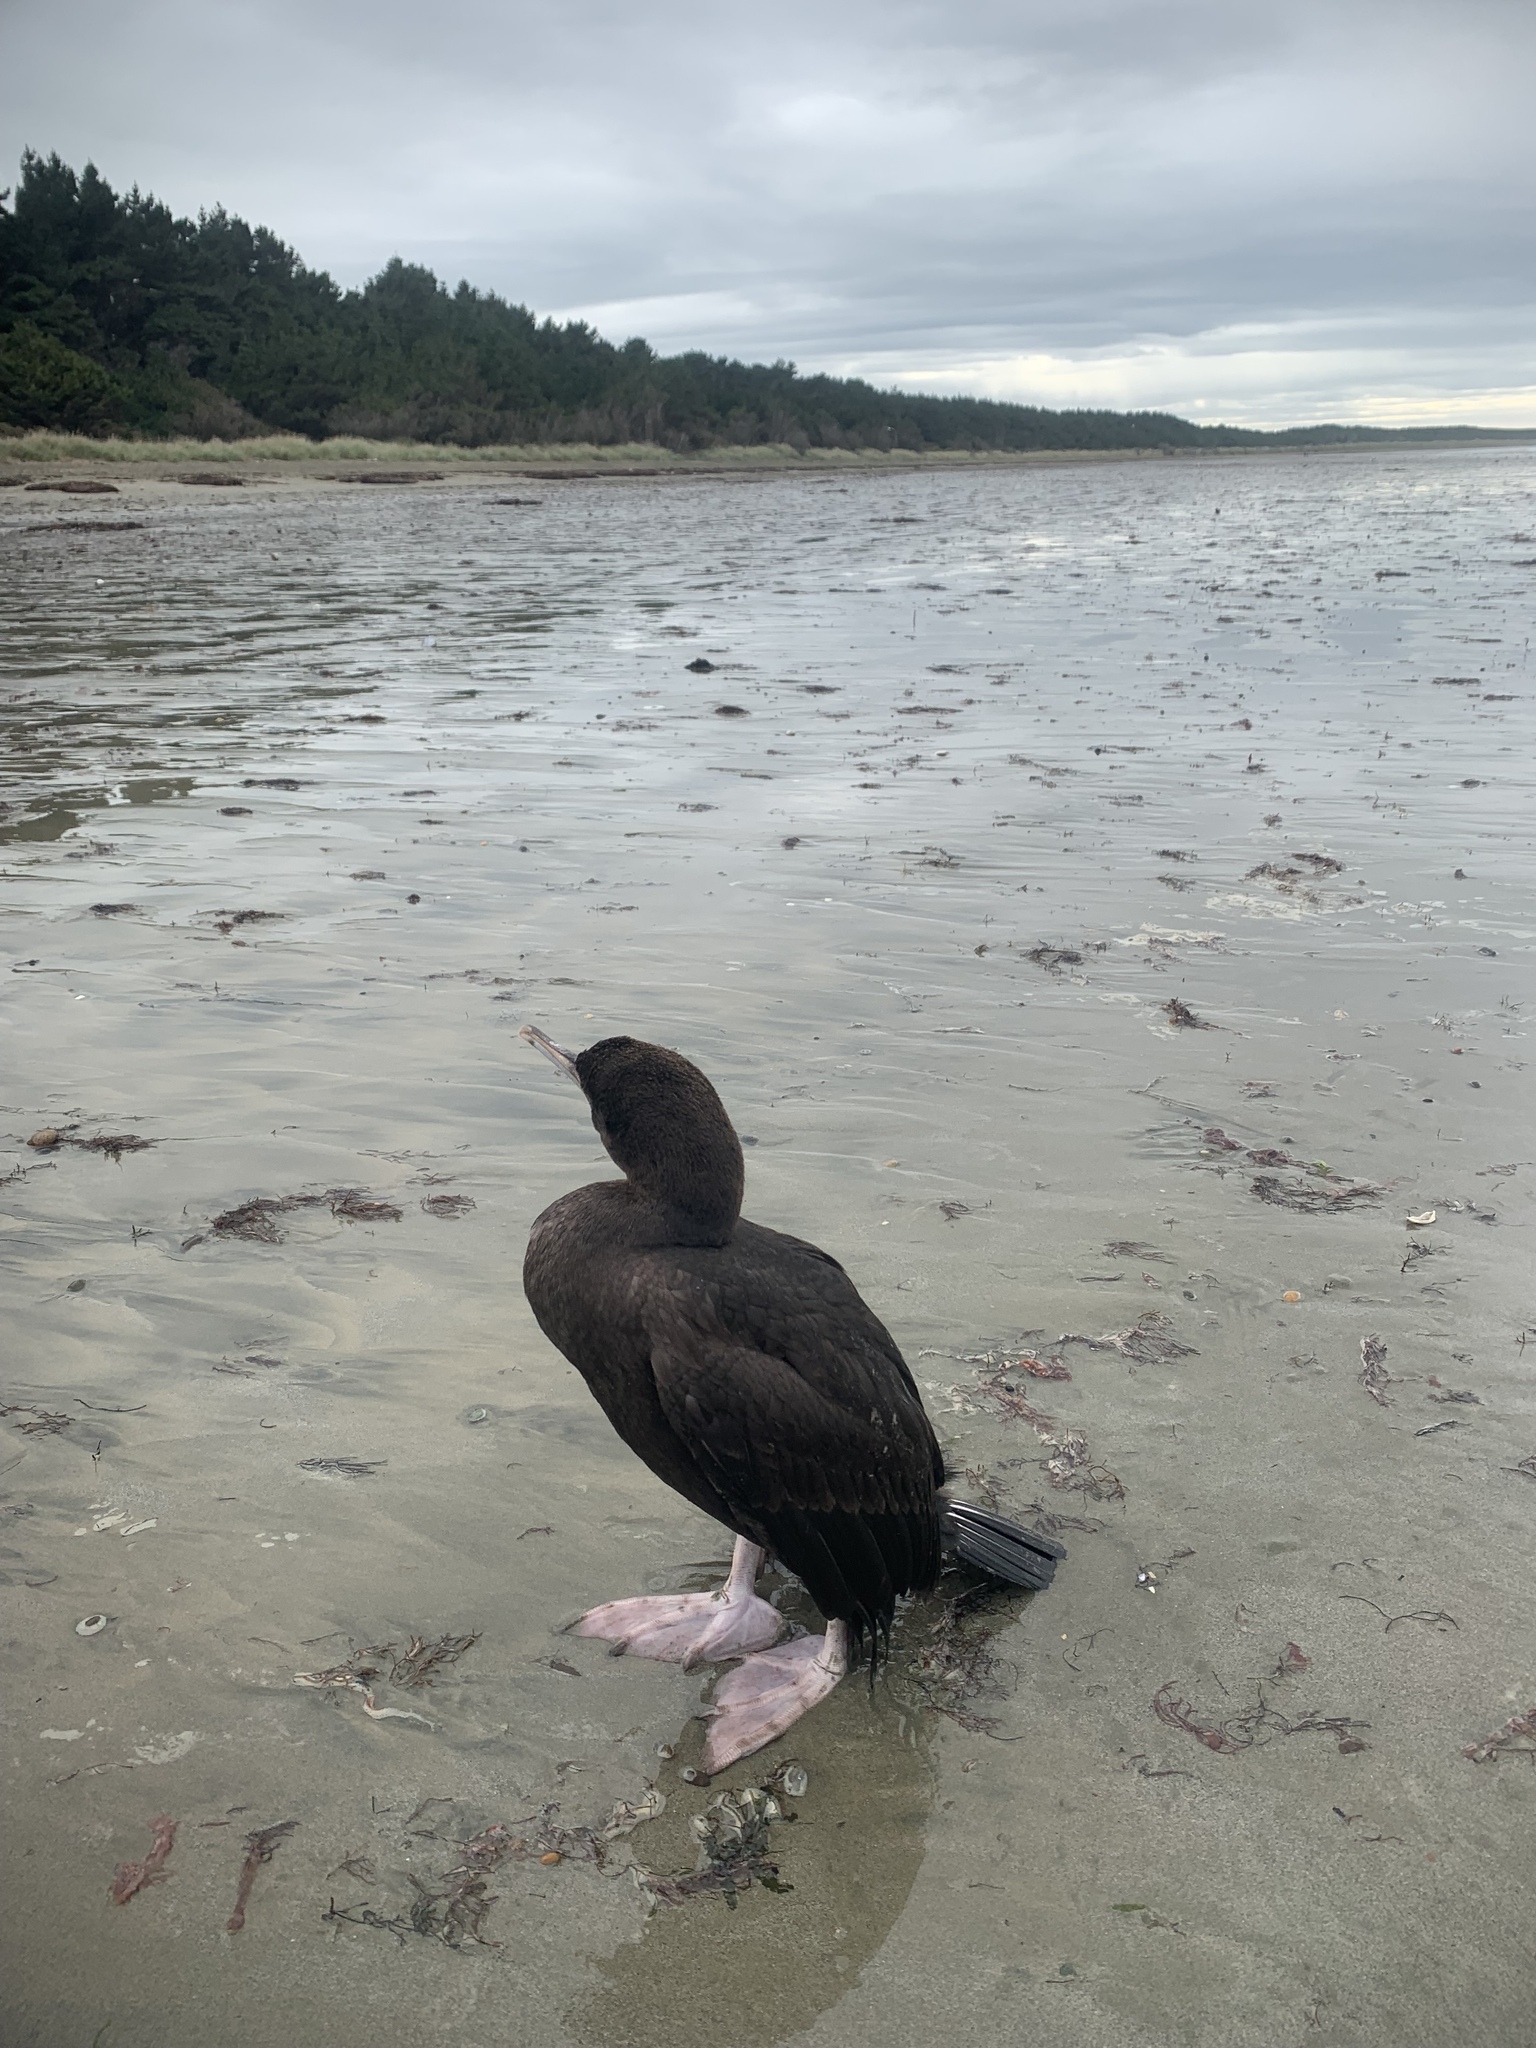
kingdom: Animalia
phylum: Chordata
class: Aves
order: Suliformes
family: Phalacrocoracidae
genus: Leucocarbo
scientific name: Leucocarbo chalconotus
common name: Stewart shag
